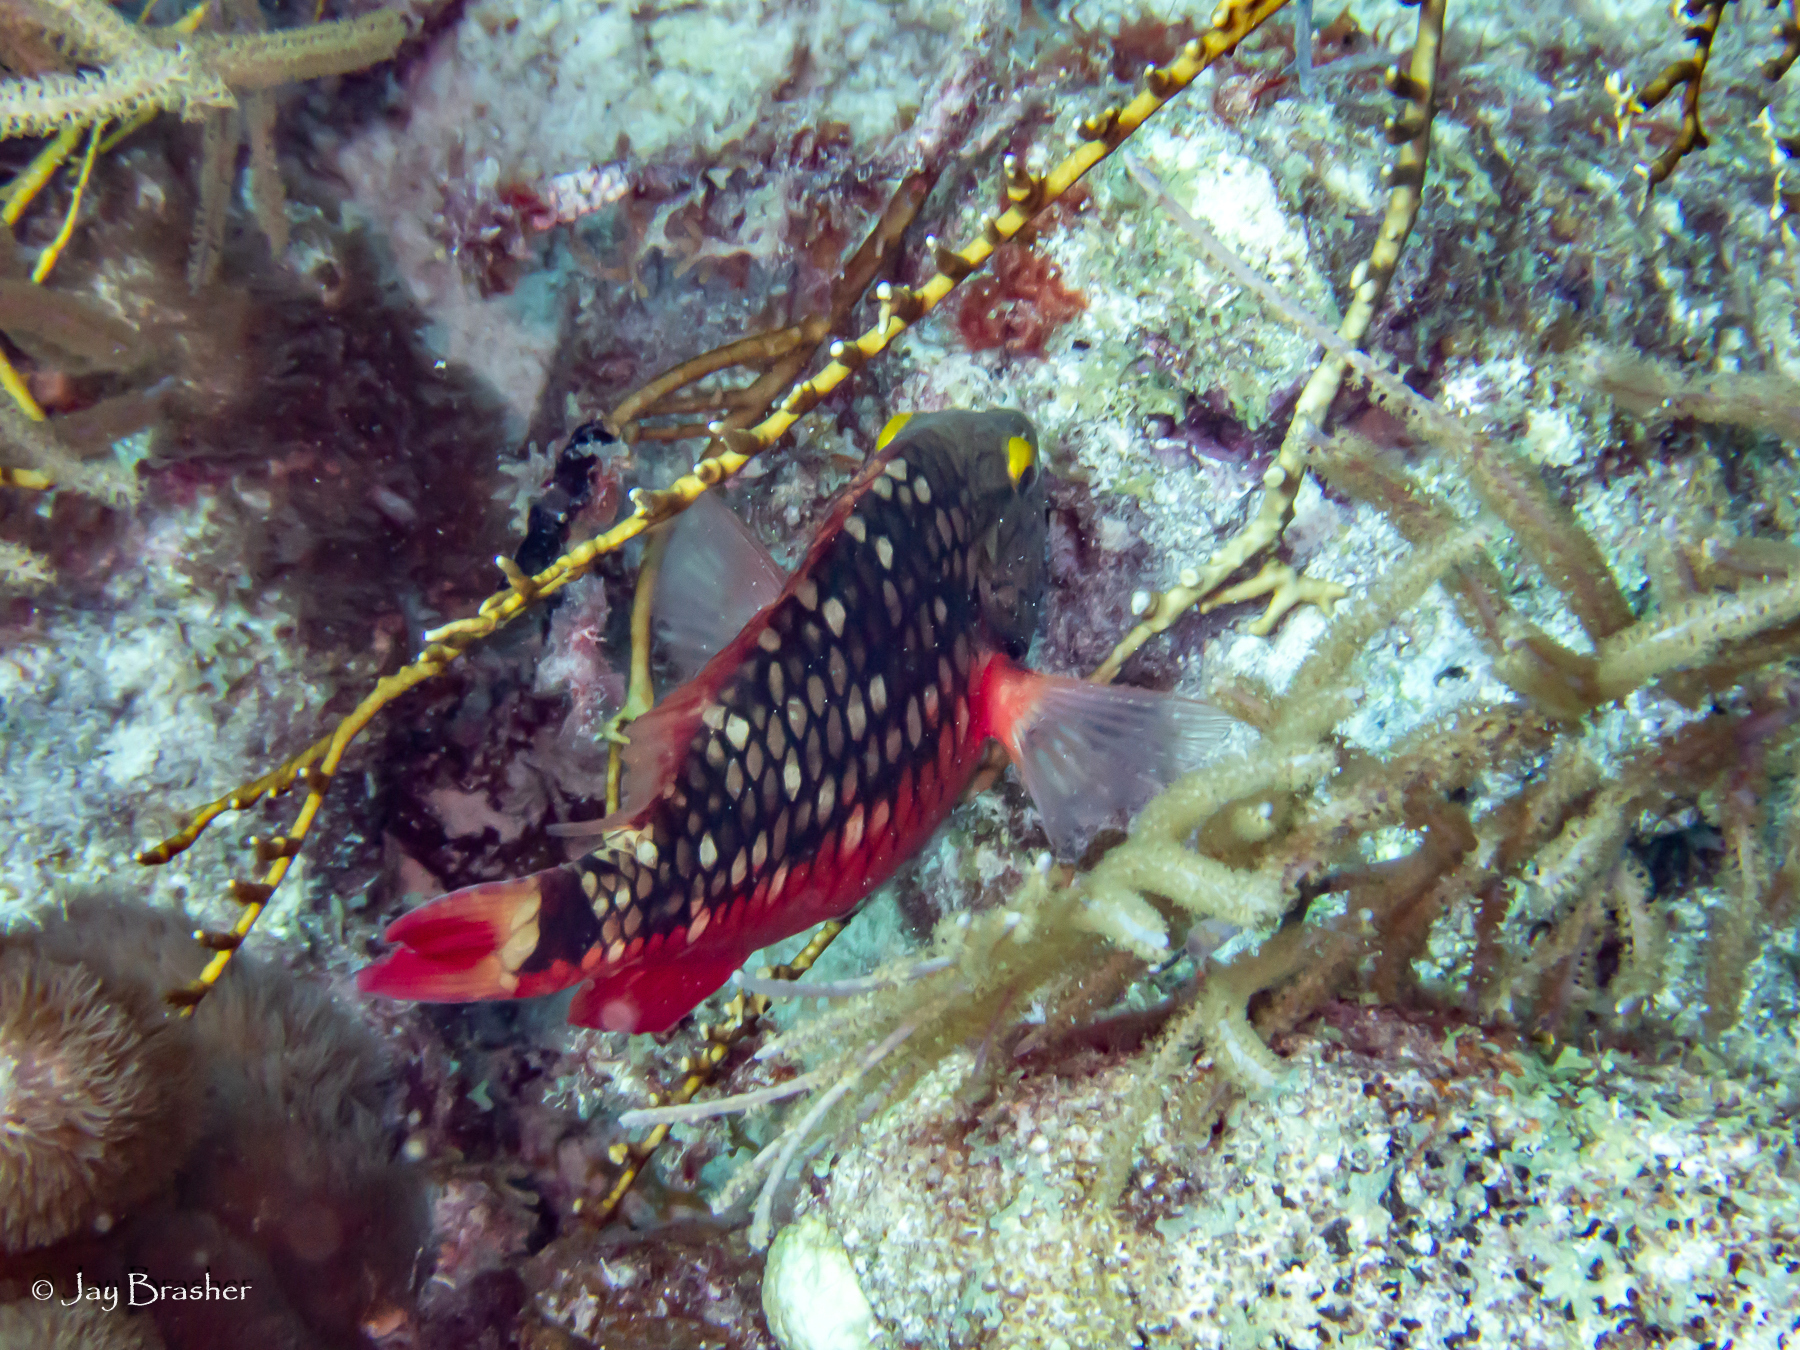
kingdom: Animalia
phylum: Chordata
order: Perciformes
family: Scaridae
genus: Sparisoma
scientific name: Sparisoma viride
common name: Stoplight parrotfish
